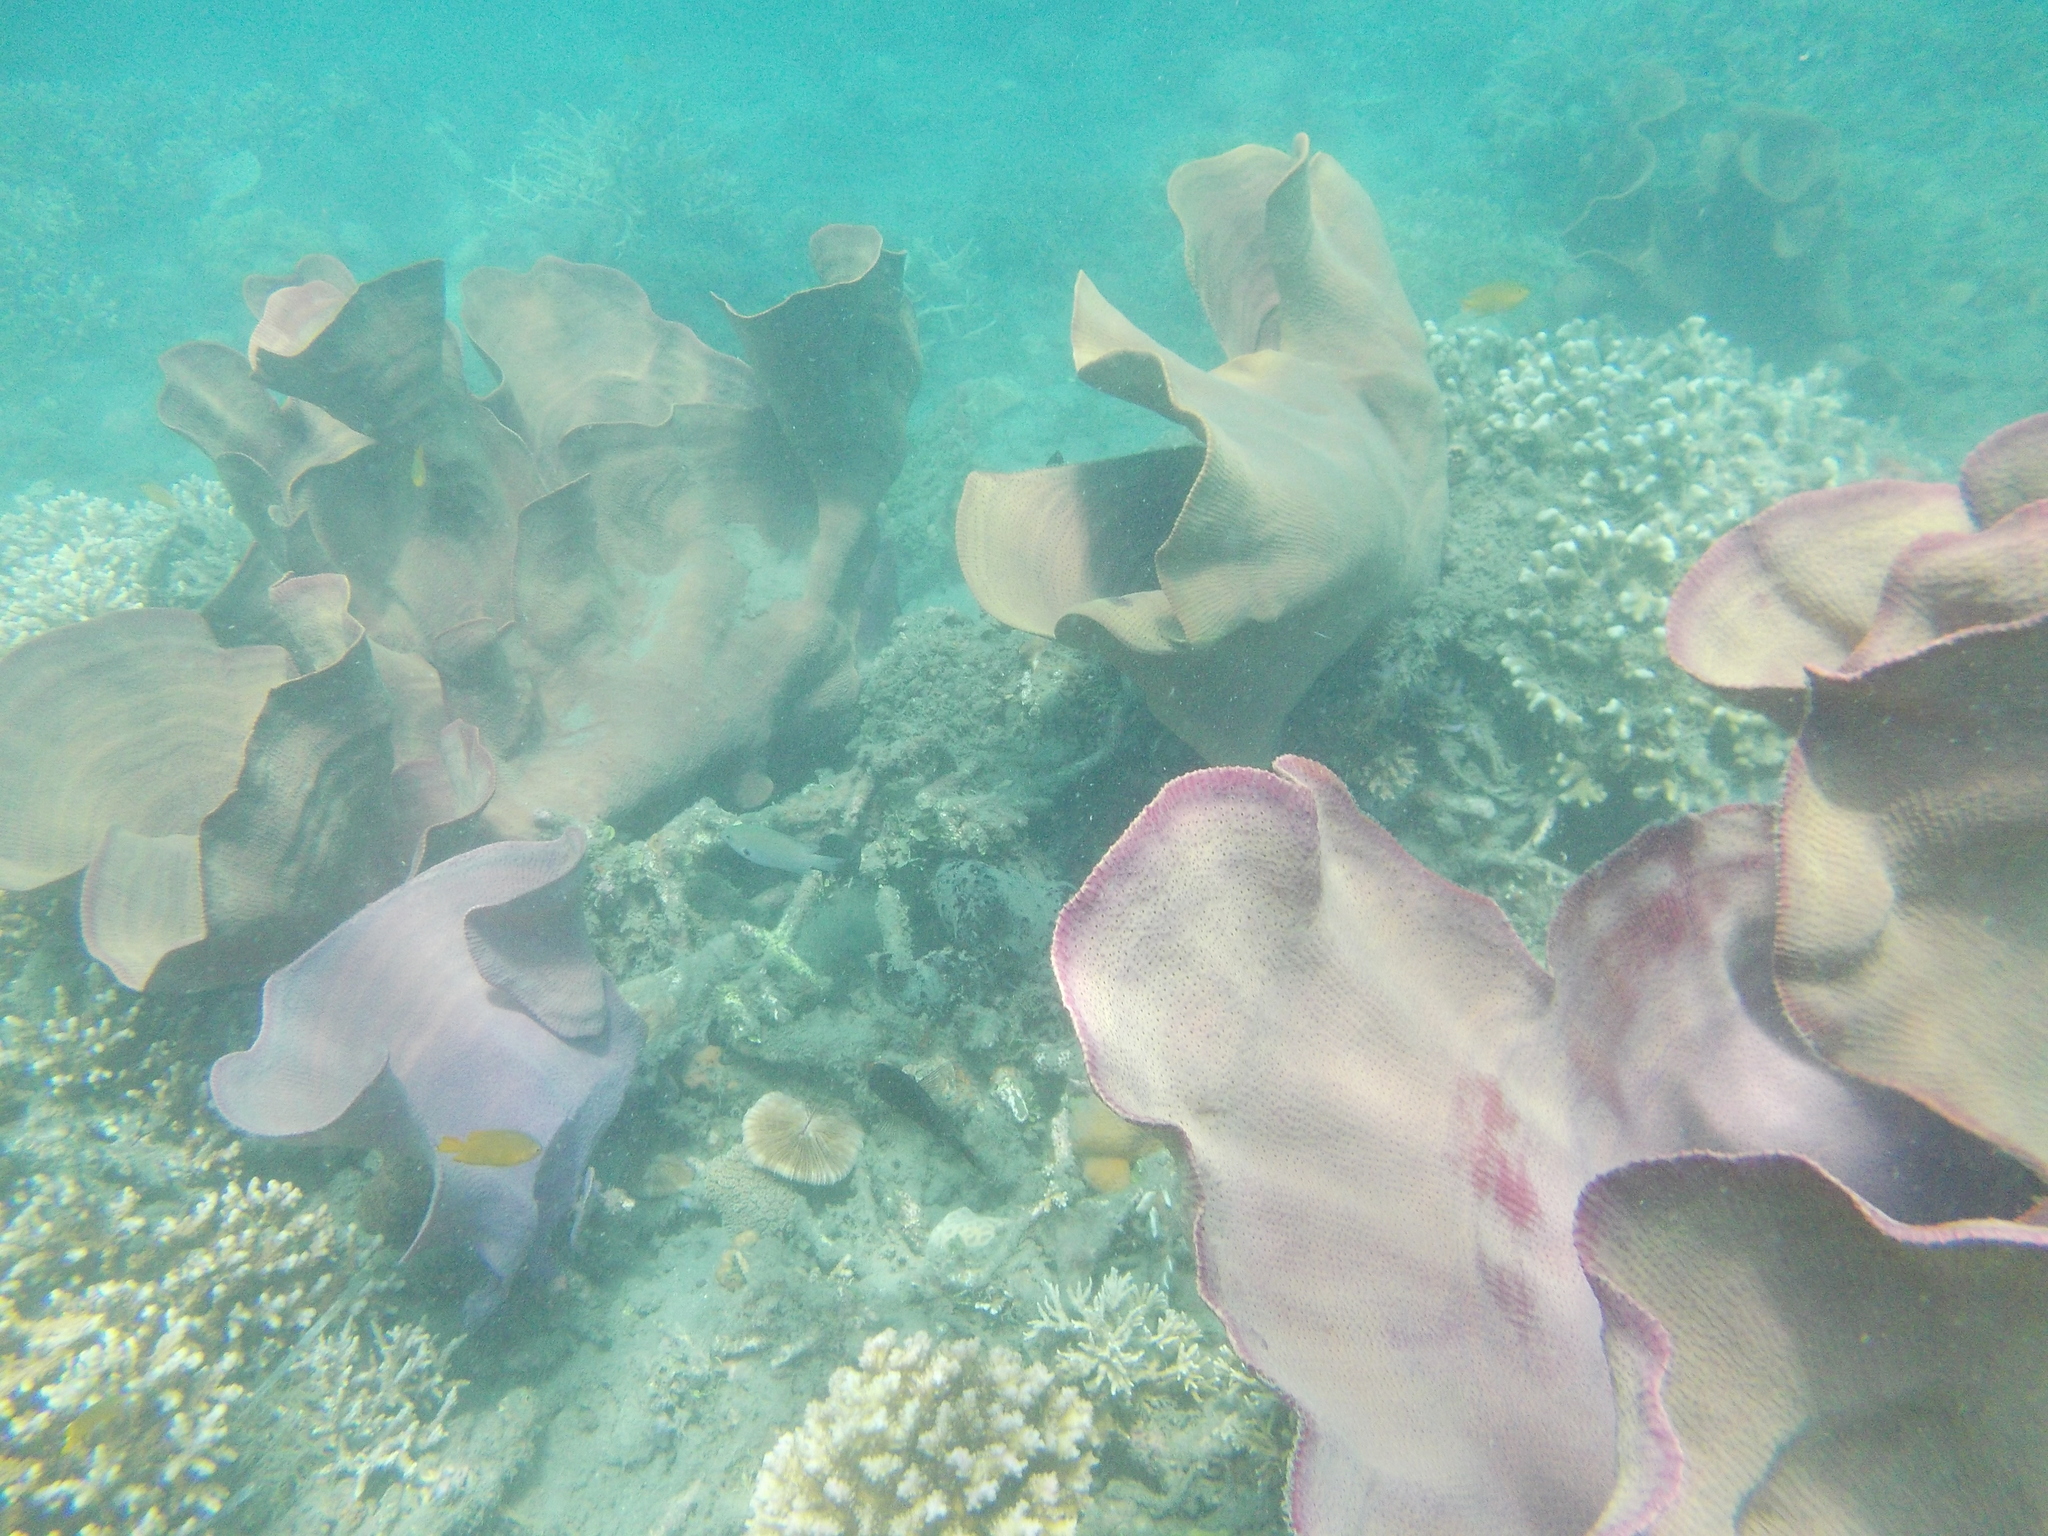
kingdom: Animalia
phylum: Porifera
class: Demospongiae
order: Verongiida
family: Ianthellidae
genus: Ianthella
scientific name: Ianthella basta
